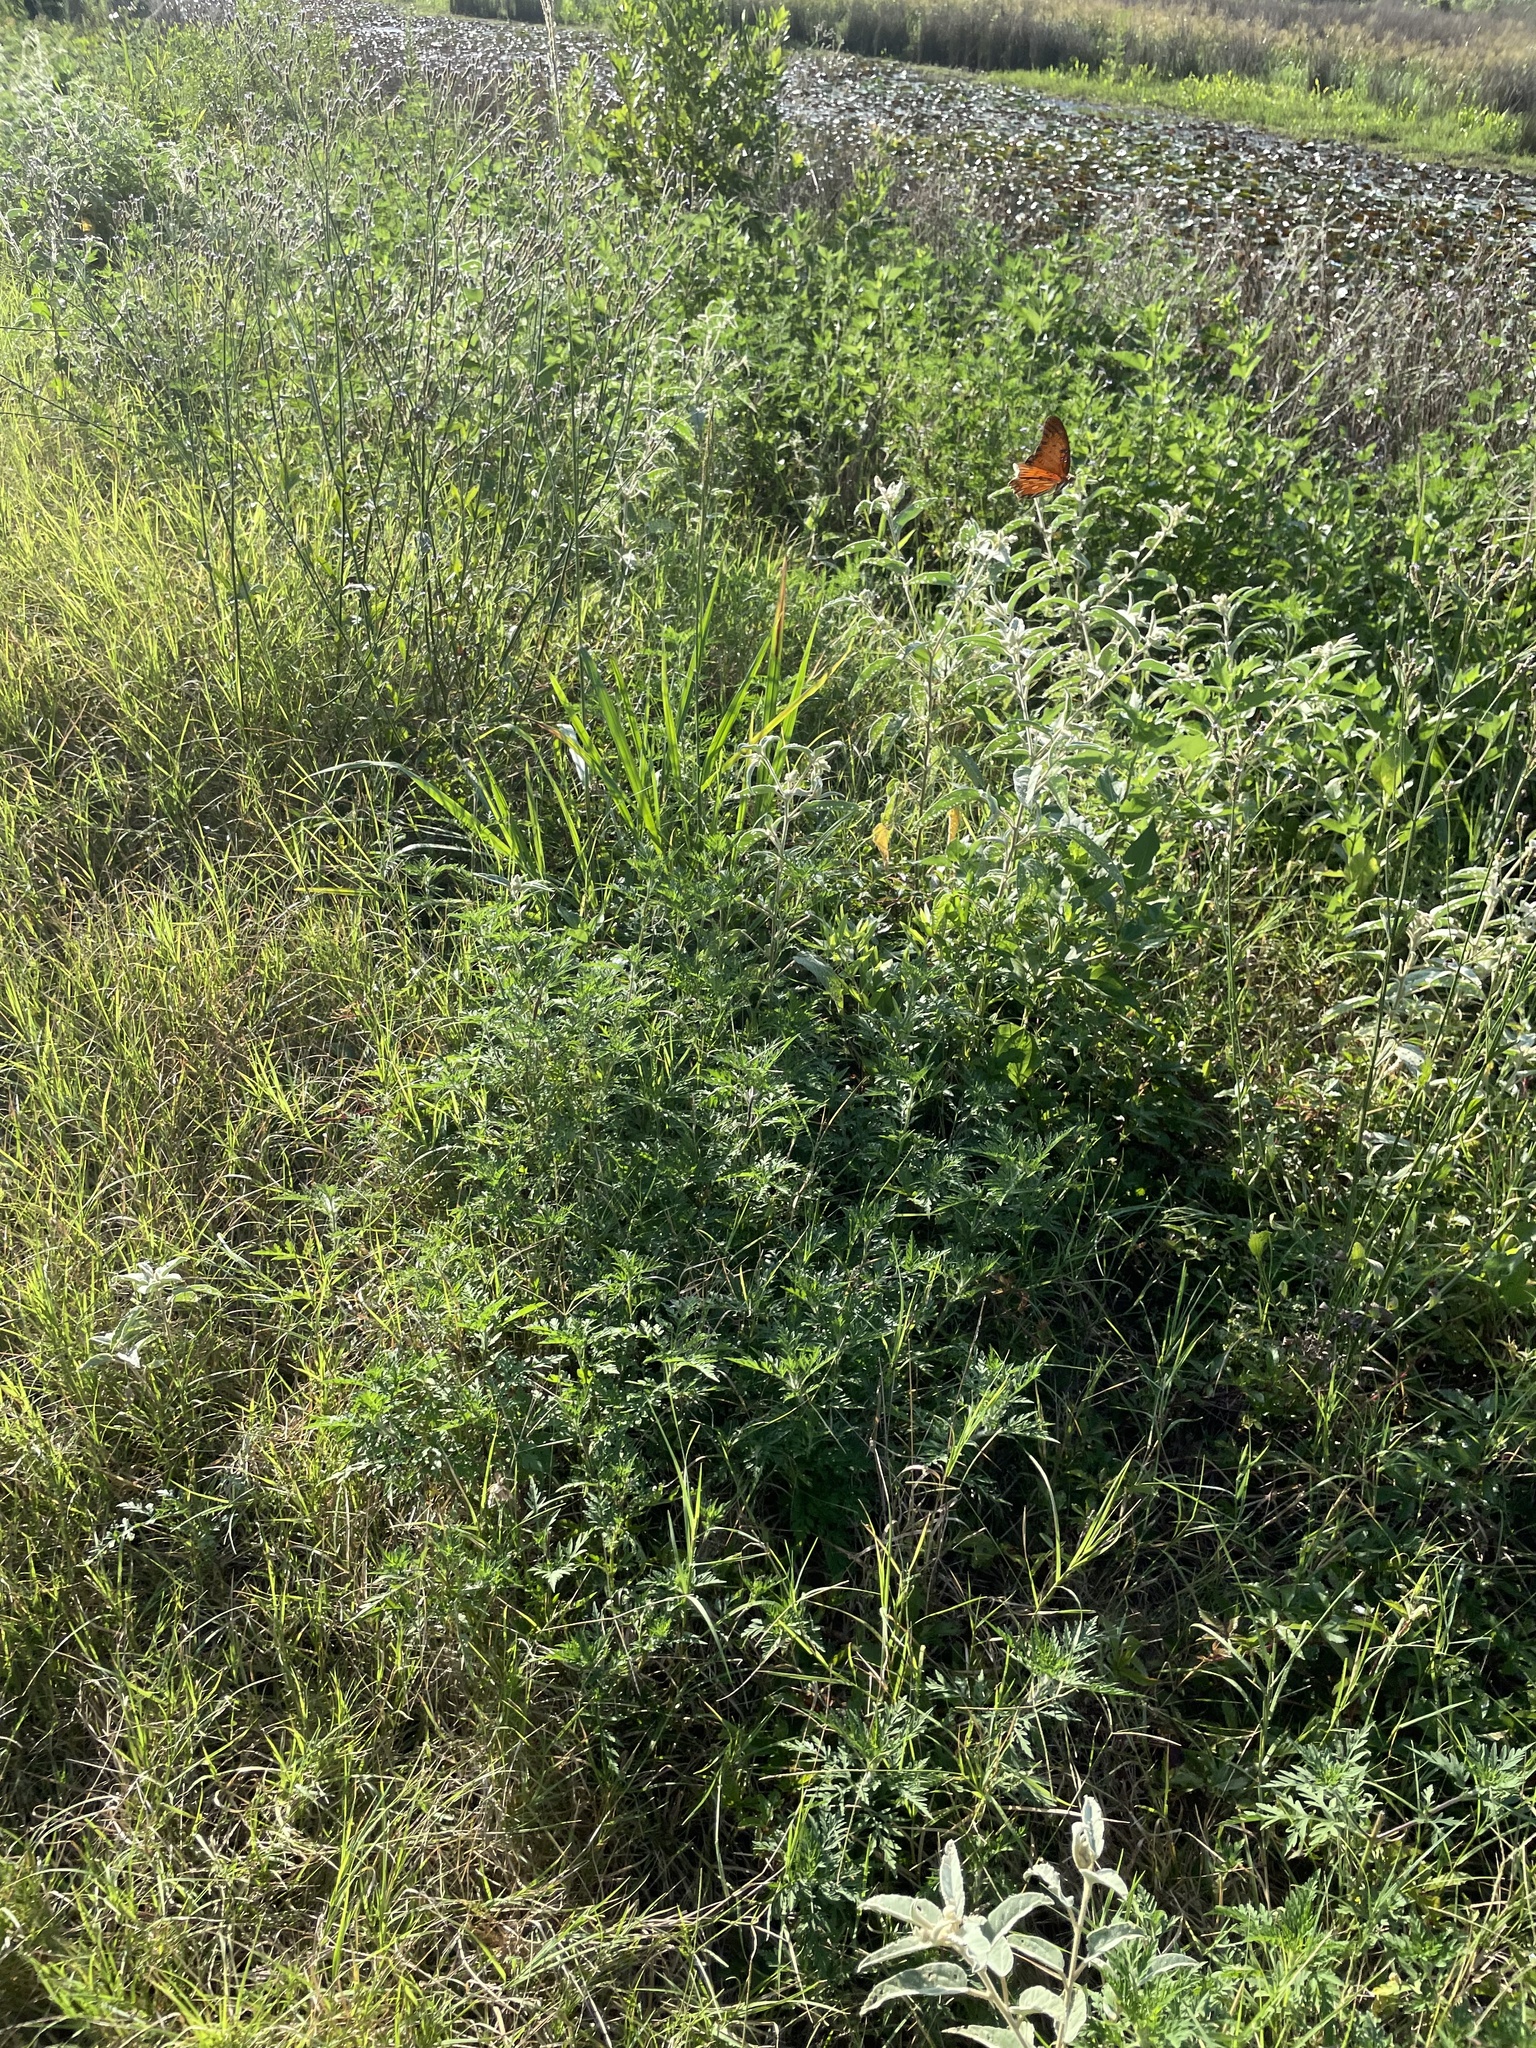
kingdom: Animalia
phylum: Arthropoda
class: Insecta
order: Lepidoptera
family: Nymphalidae
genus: Dione
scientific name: Dione vanillae
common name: Gulf fritillary
